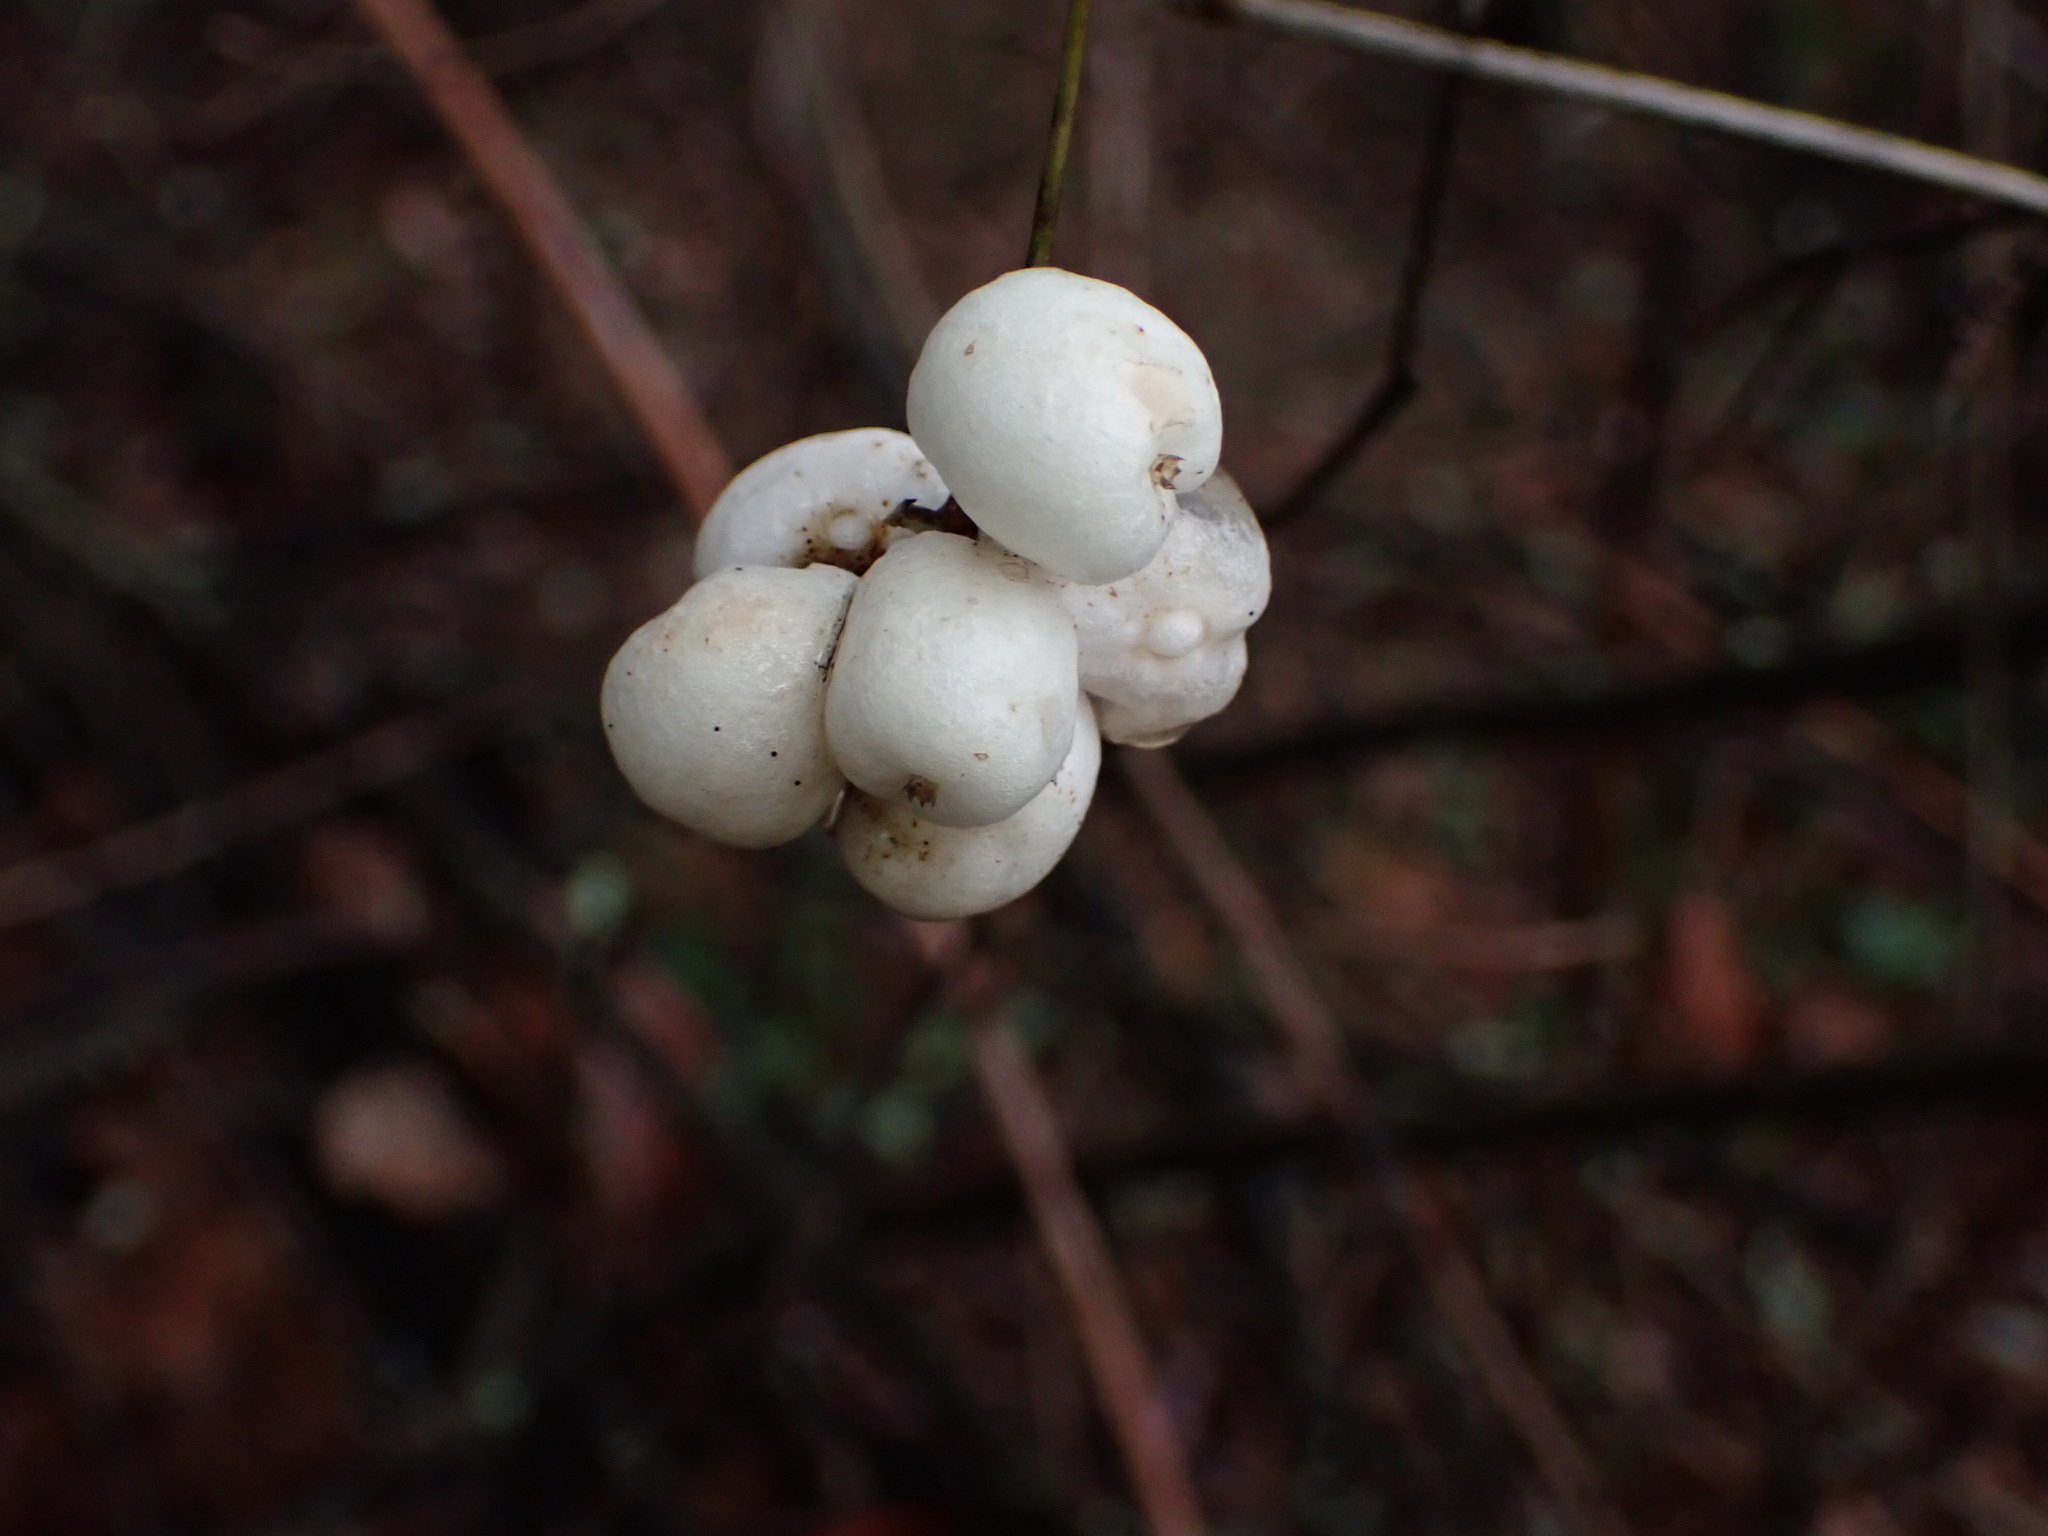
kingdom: Plantae
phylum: Tracheophyta
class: Magnoliopsida
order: Dipsacales
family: Caprifoliaceae
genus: Symphoricarpos
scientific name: Symphoricarpos albus
